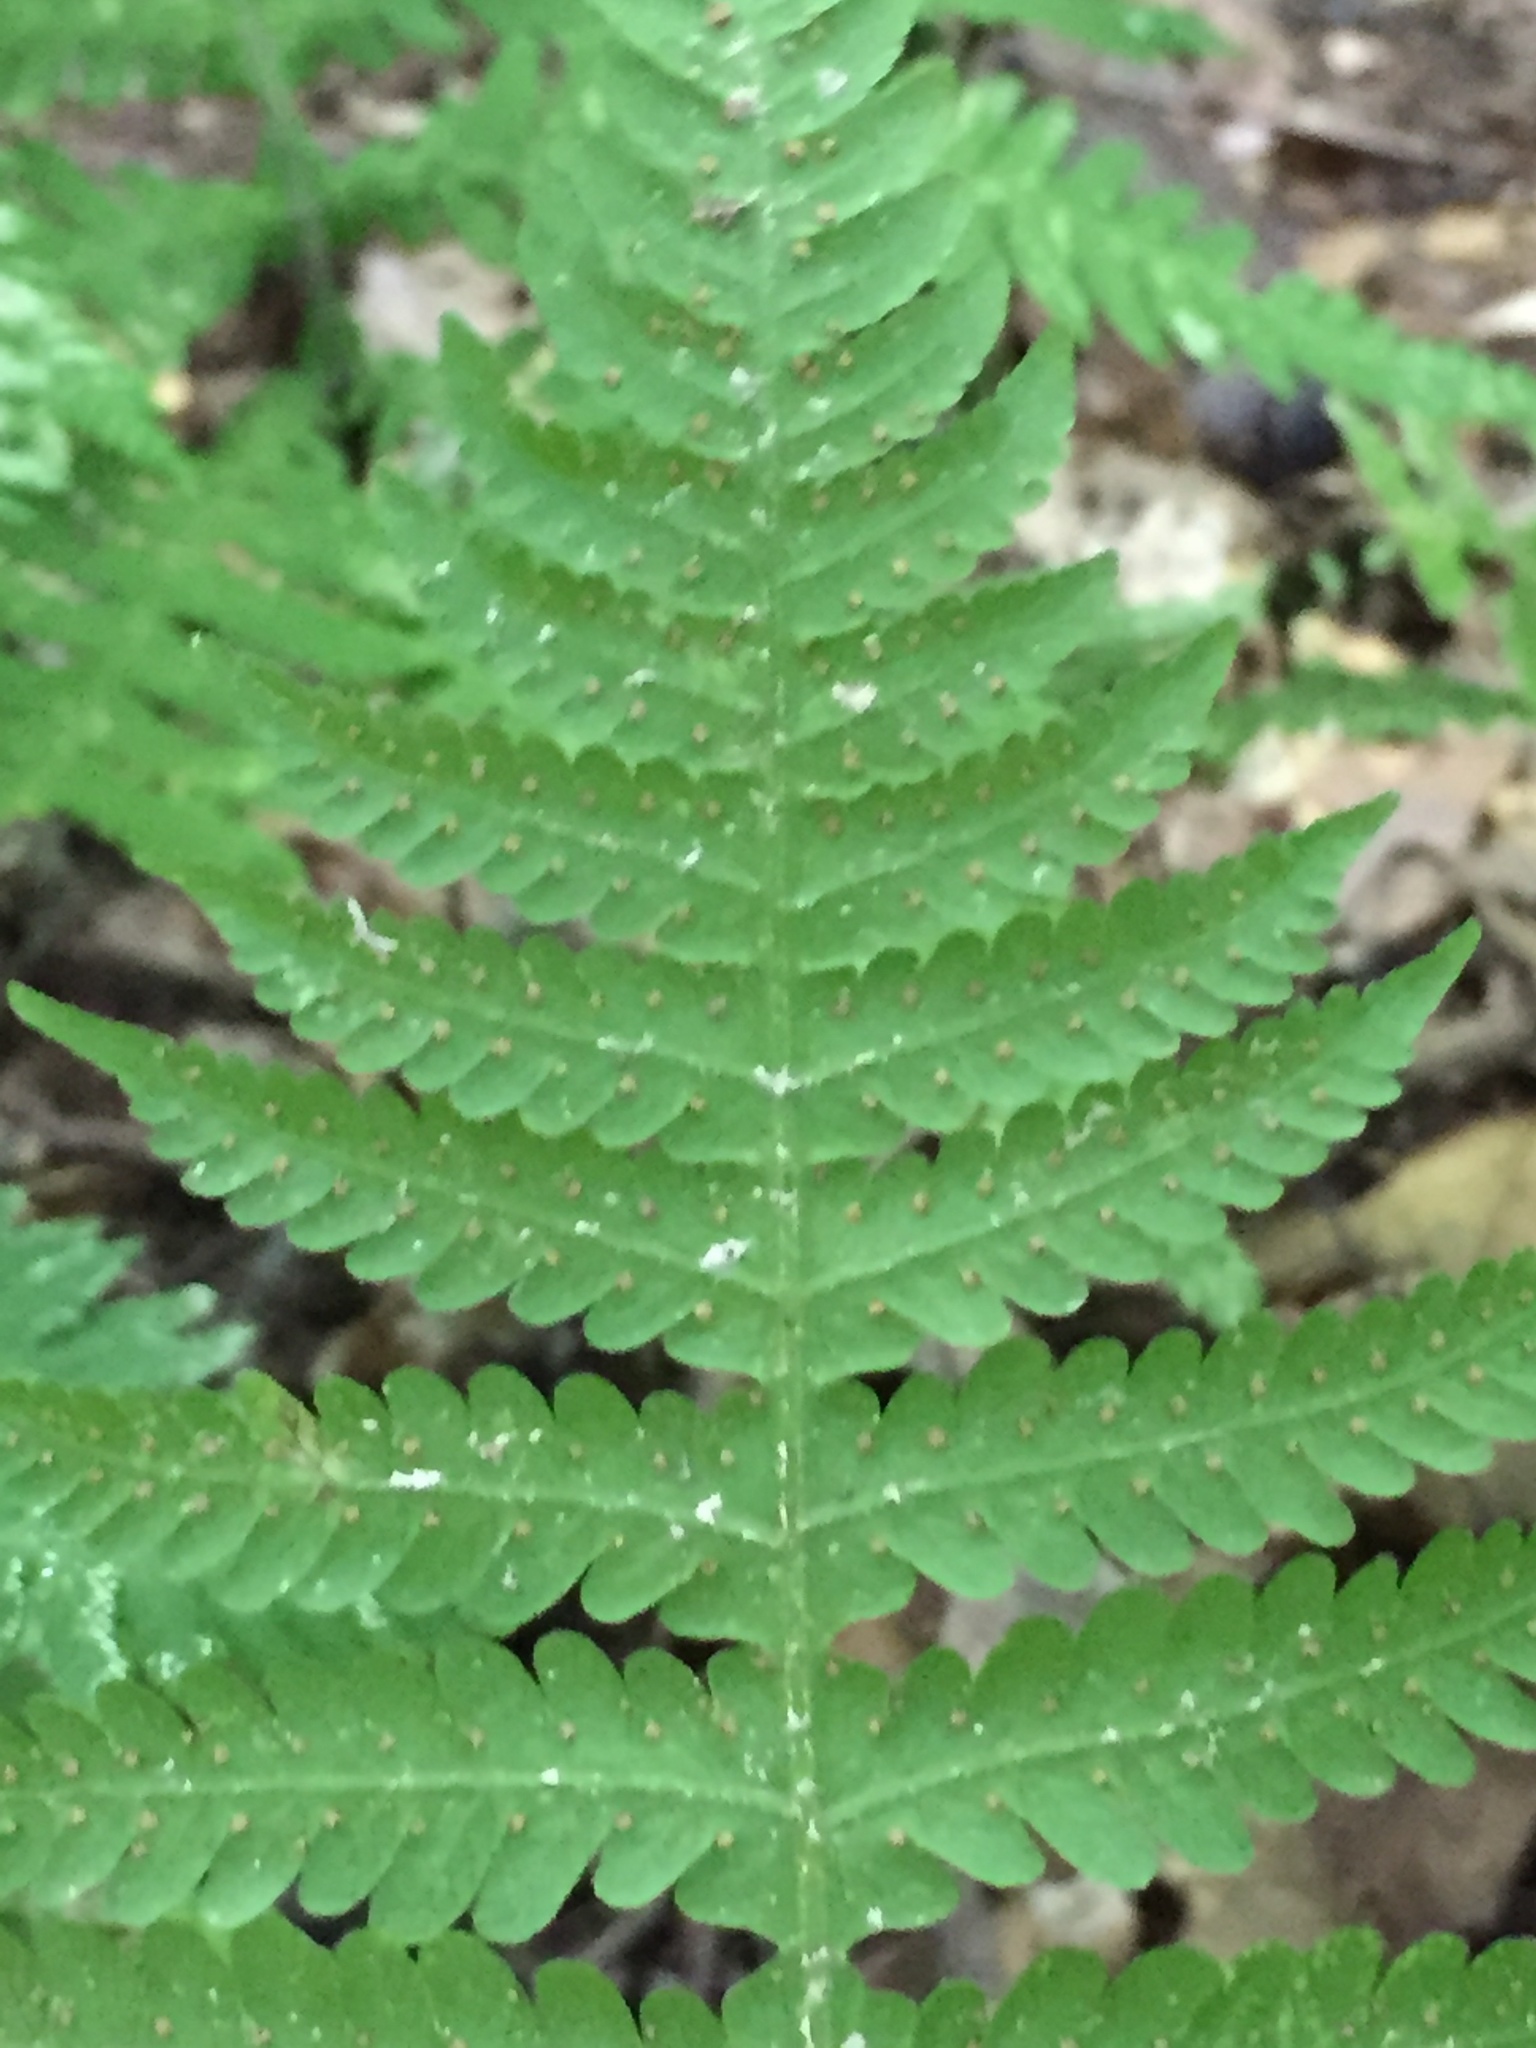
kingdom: Plantae
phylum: Tracheophyta
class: Polypodiopsida
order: Polypodiales
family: Thelypteridaceae
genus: Phegopteris
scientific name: Phegopteris hexagonoptera
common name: Broad beech fern
